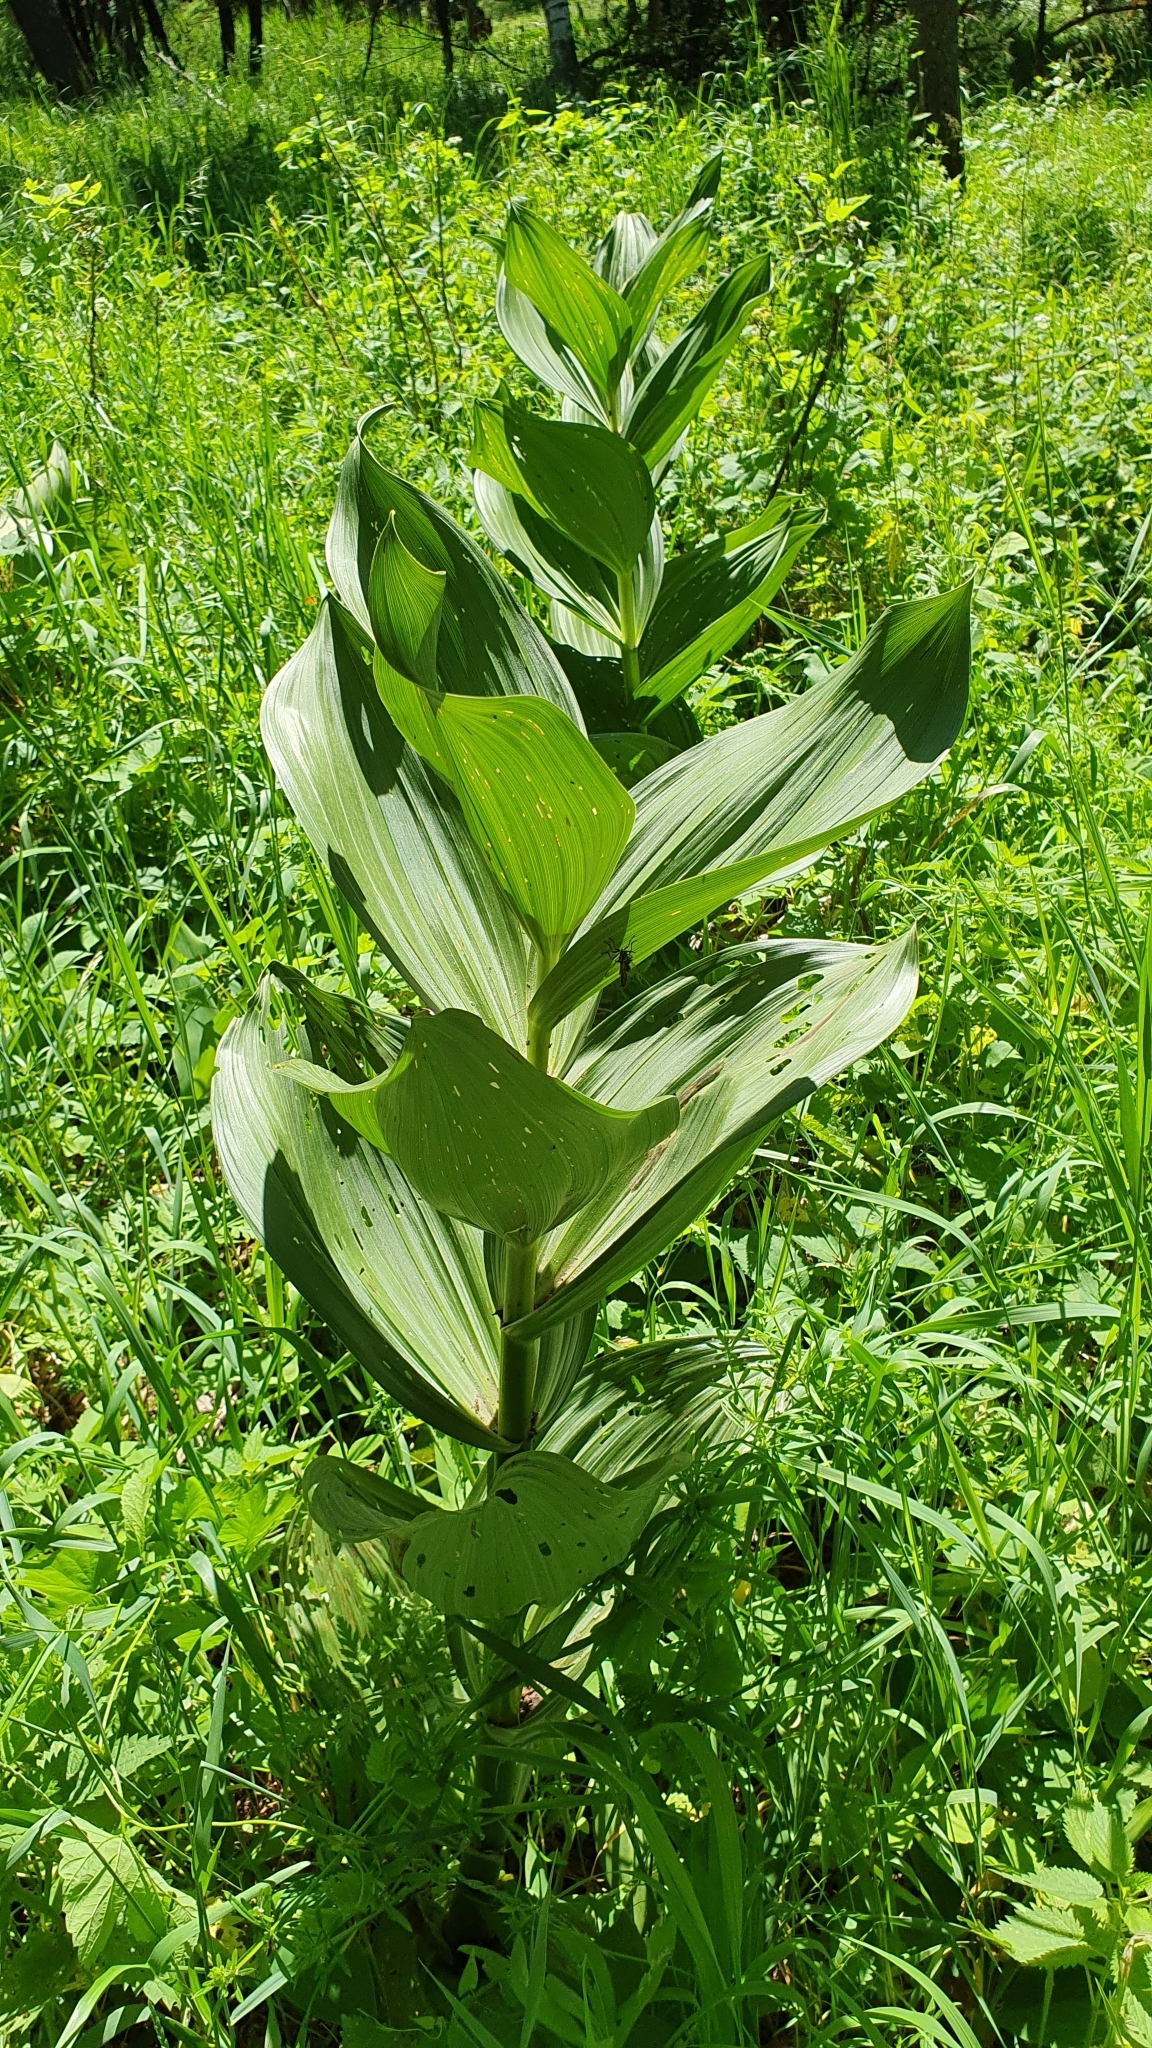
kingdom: Plantae
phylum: Tracheophyta
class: Liliopsida
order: Liliales
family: Melanthiaceae
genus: Veratrum
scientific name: Veratrum lobelianum
